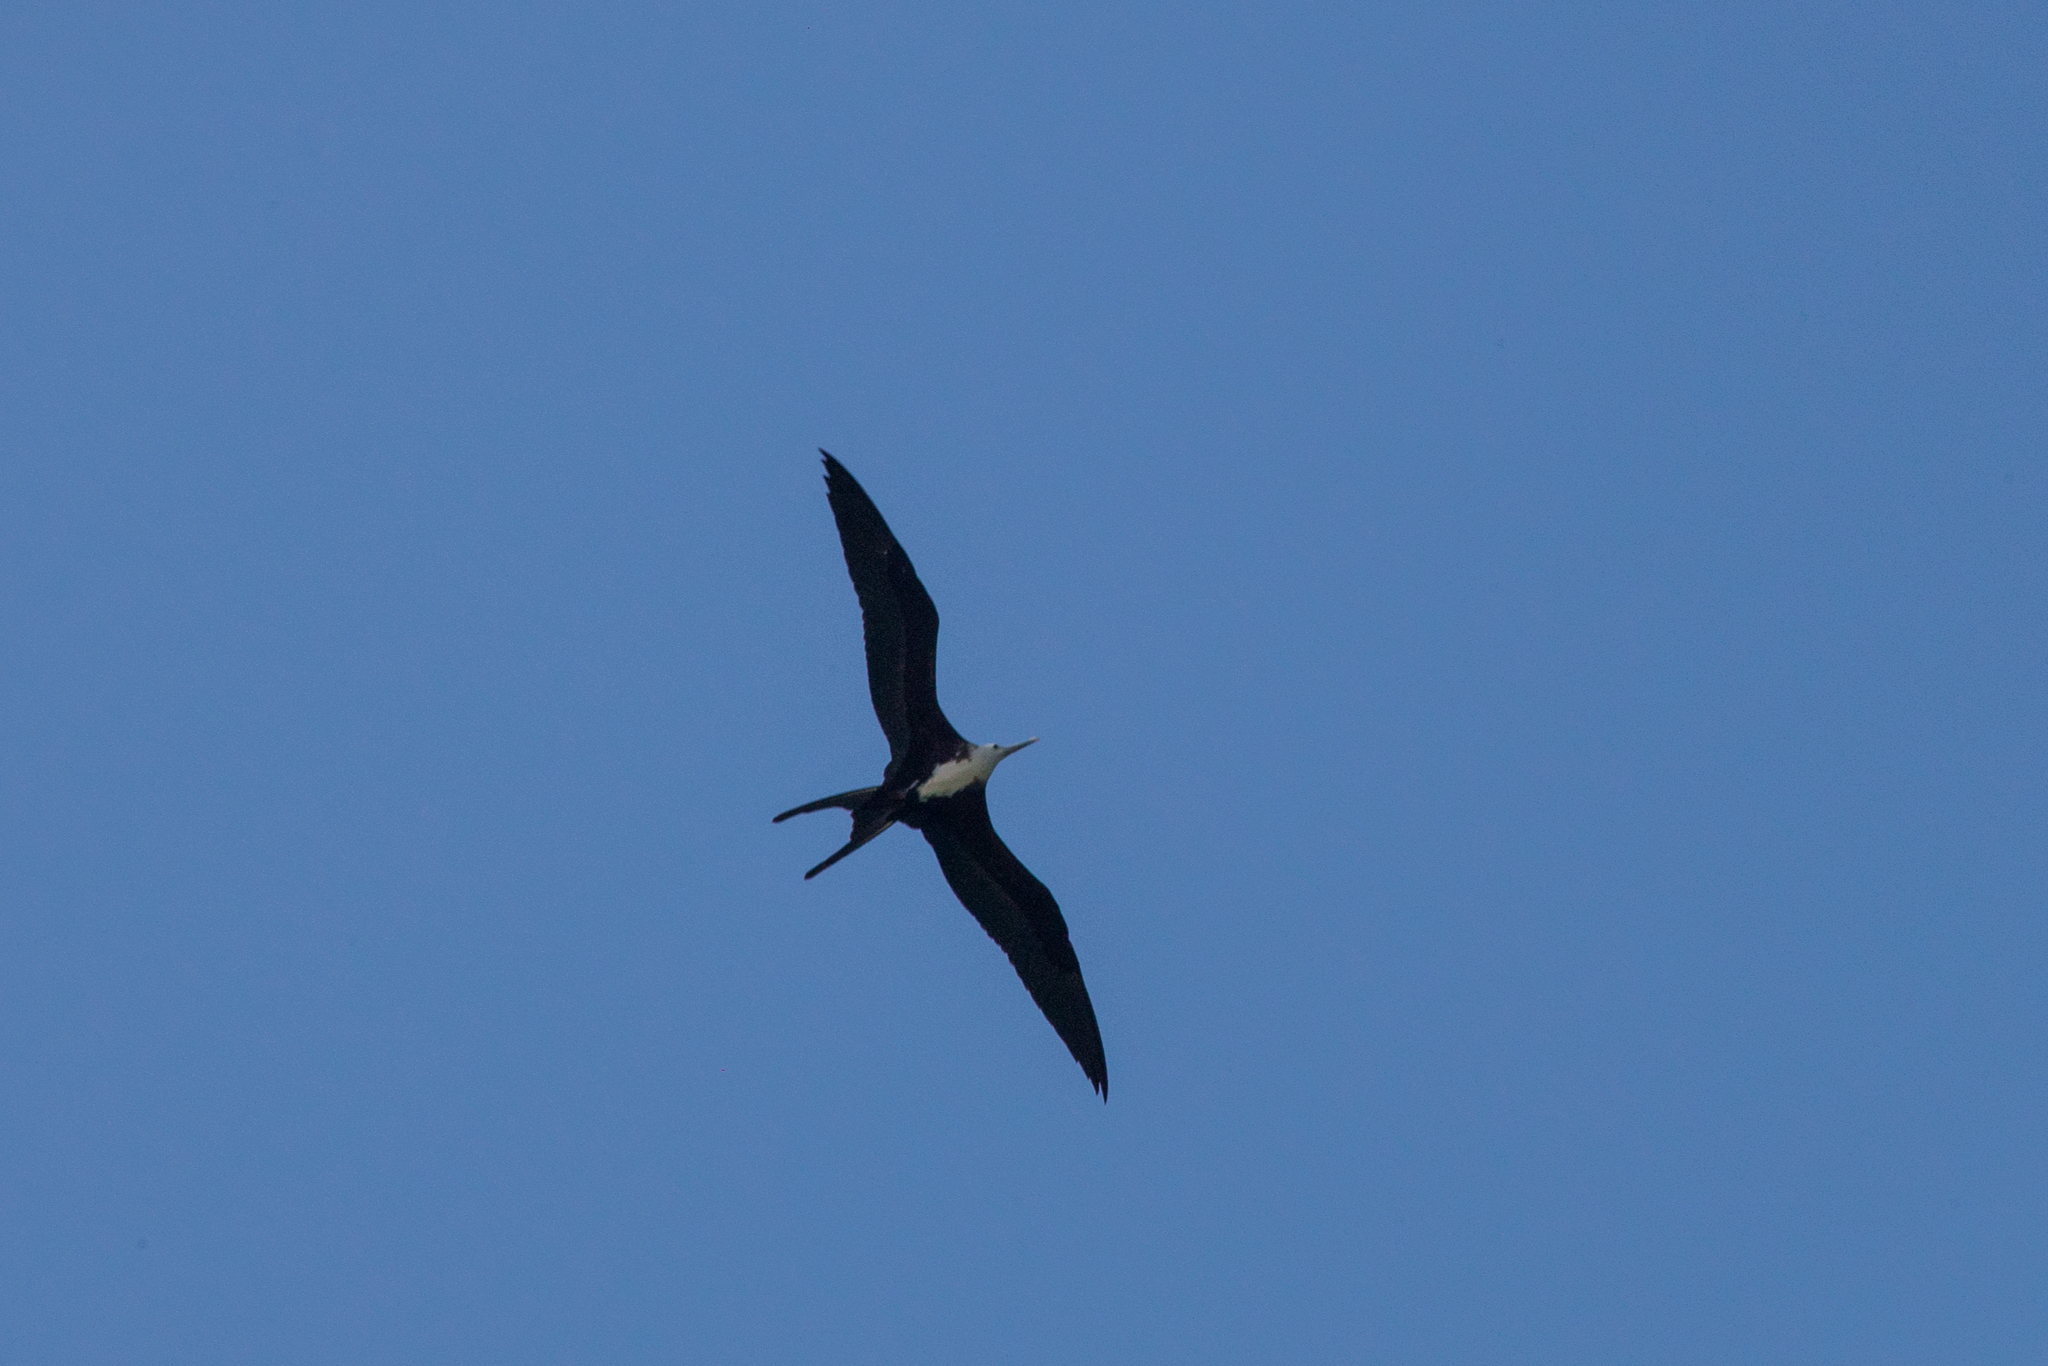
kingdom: Animalia
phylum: Chordata
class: Aves
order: Suliformes
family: Fregatidae
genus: Fregata
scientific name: Fregata magnificens
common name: Magnificent frigatebird
